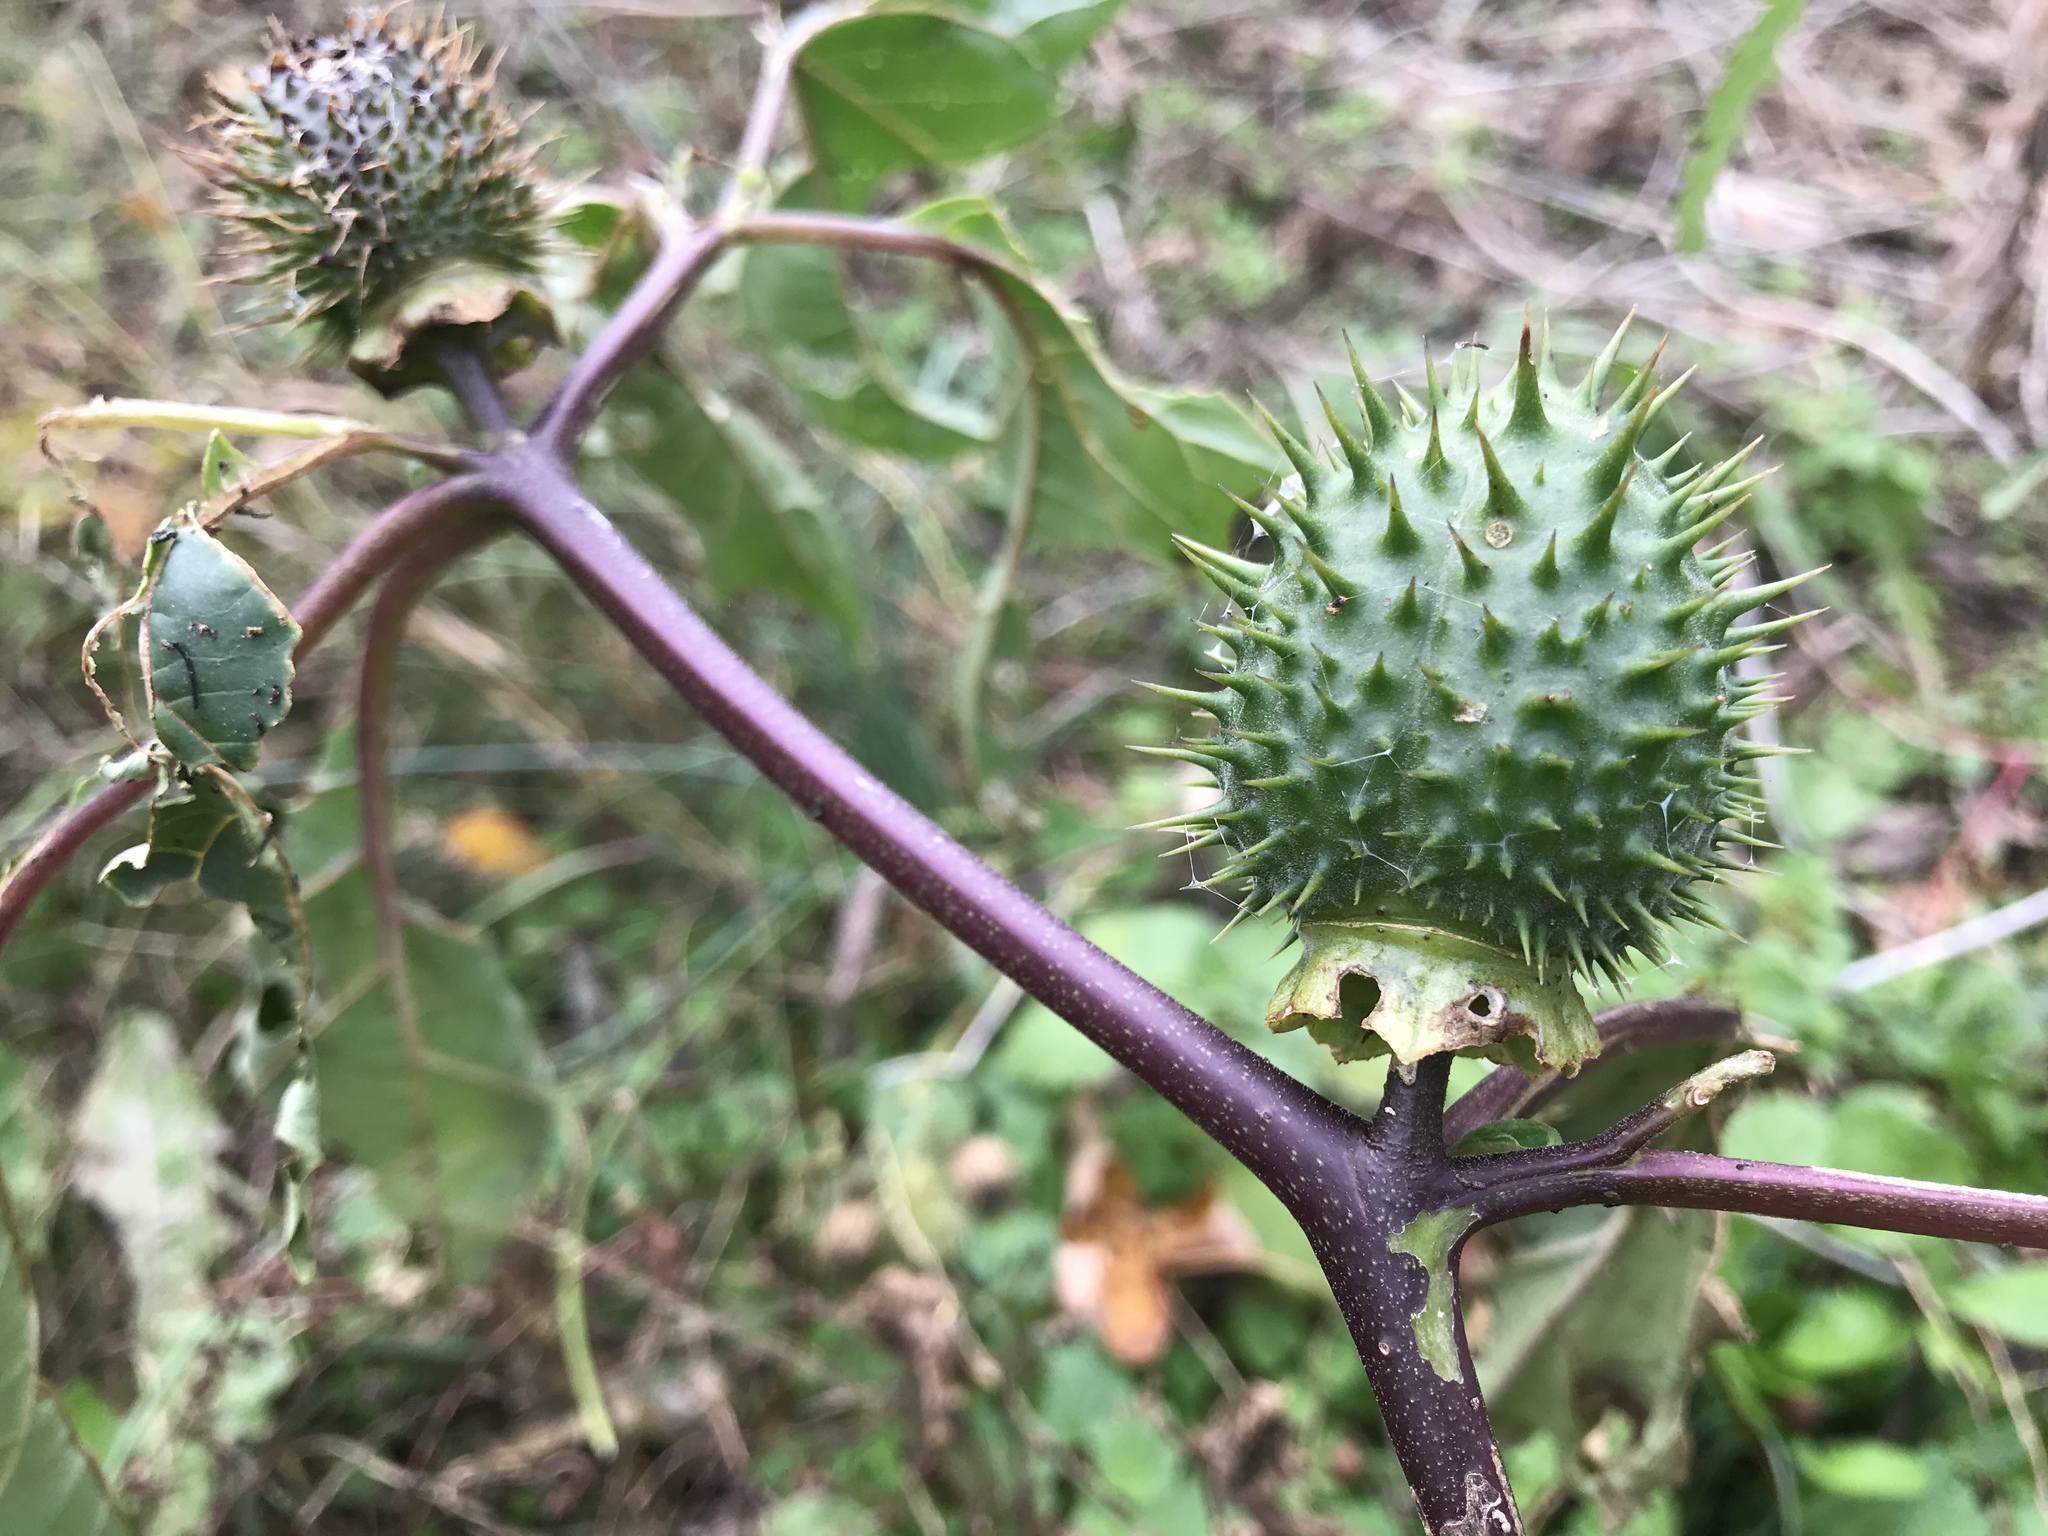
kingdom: Plantae
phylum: Tracheophyta
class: Magnoliopsida
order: Solanales
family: Solanaceae
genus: Datura
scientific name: Datura stramonium
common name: Thorn-apple
